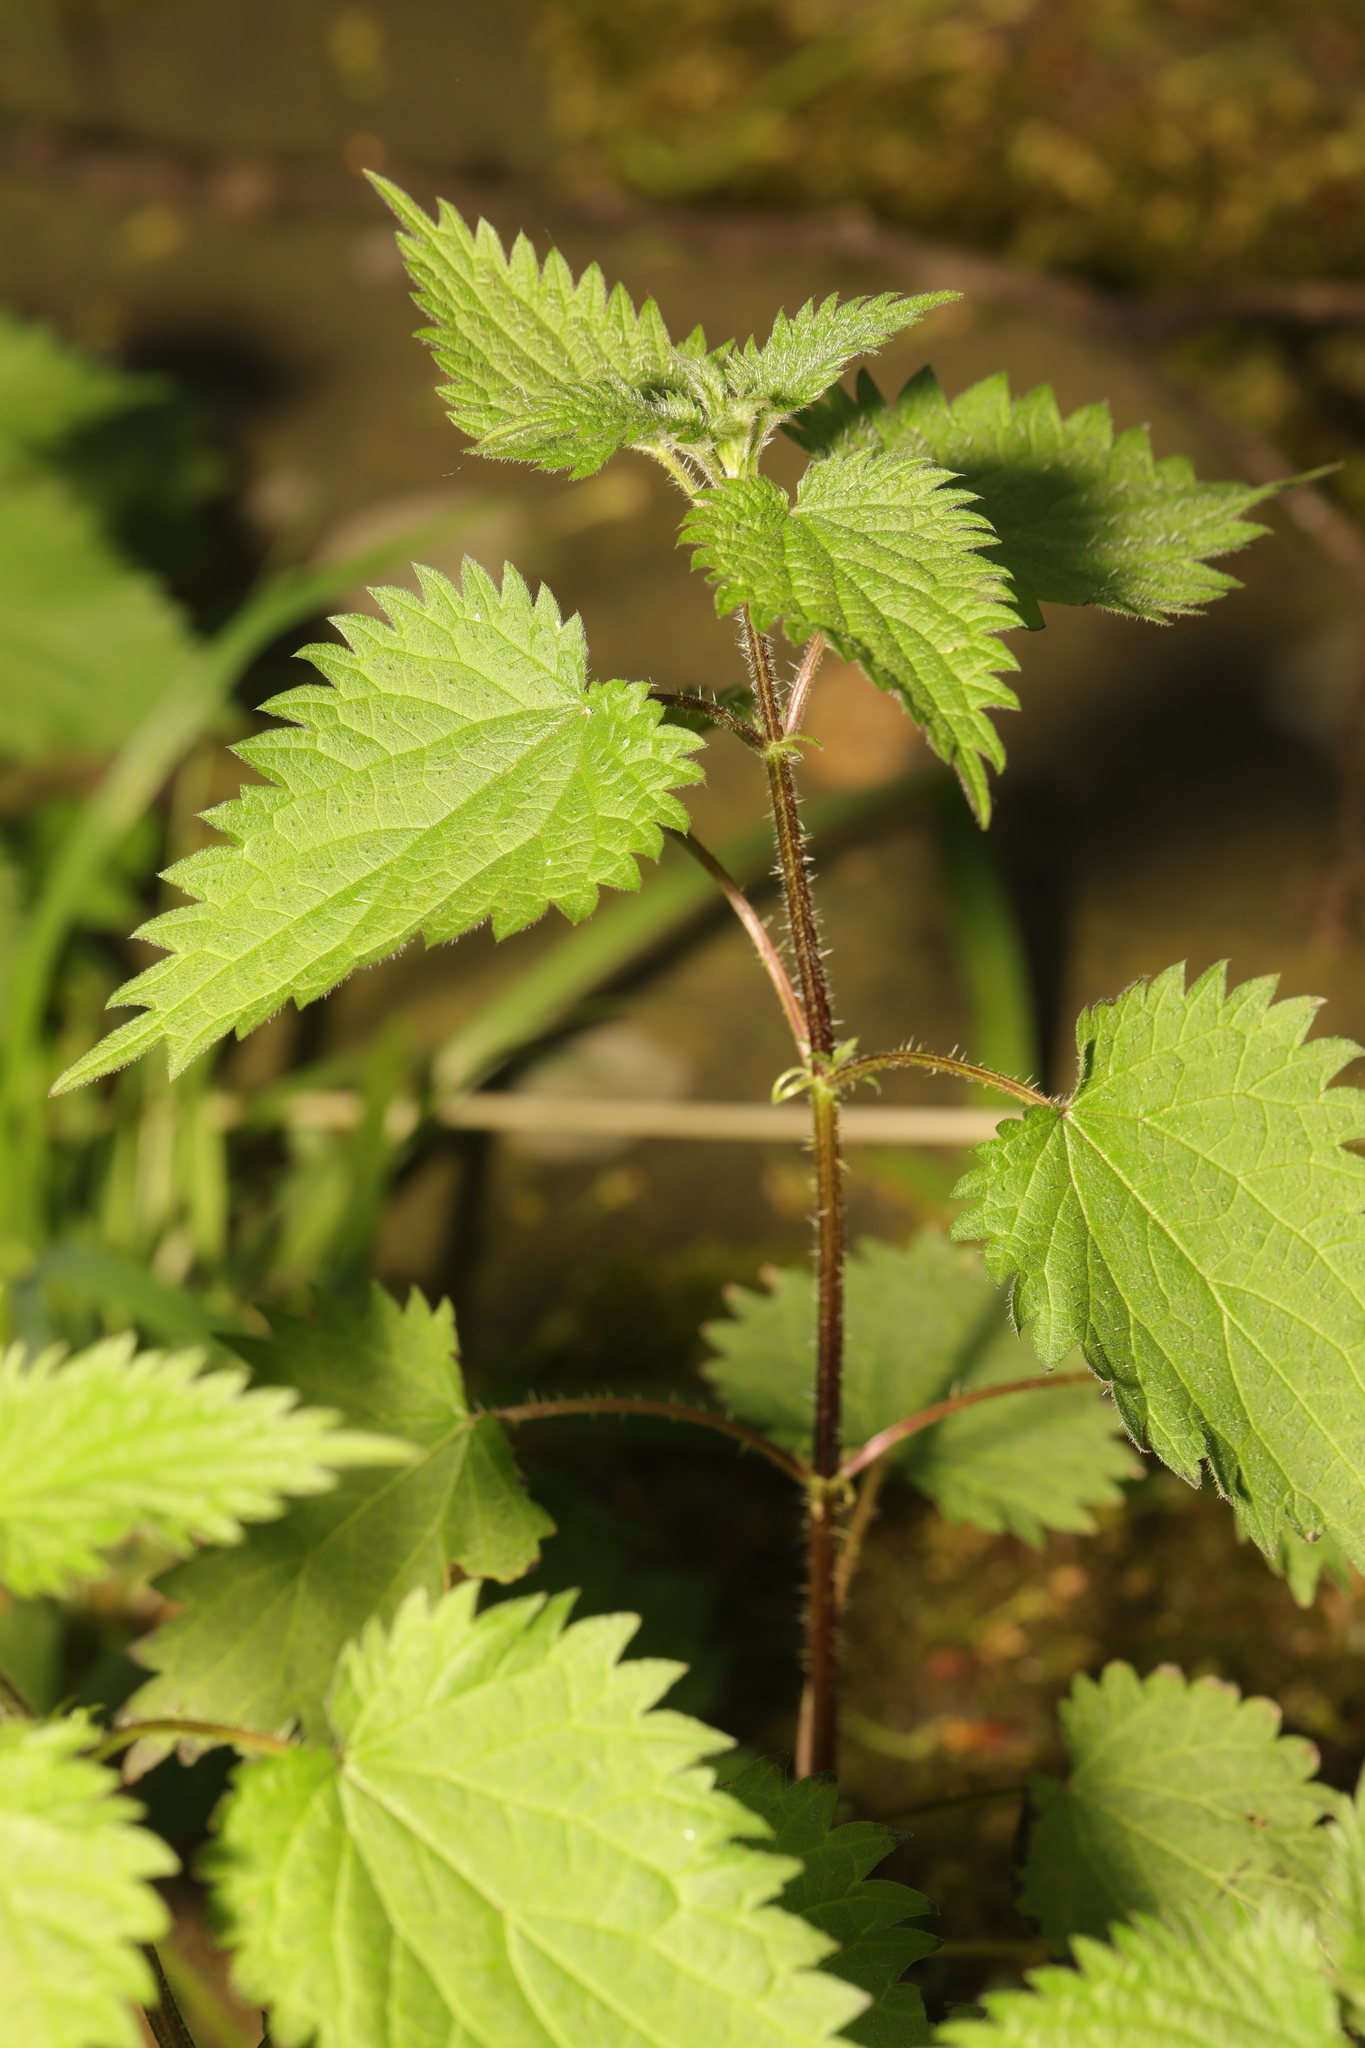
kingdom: Plantae
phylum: Tracheophyta
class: Magnoliopsida
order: Rosales
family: Urticaceae
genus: Urtica
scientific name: Urtica dioica
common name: Common nettle
